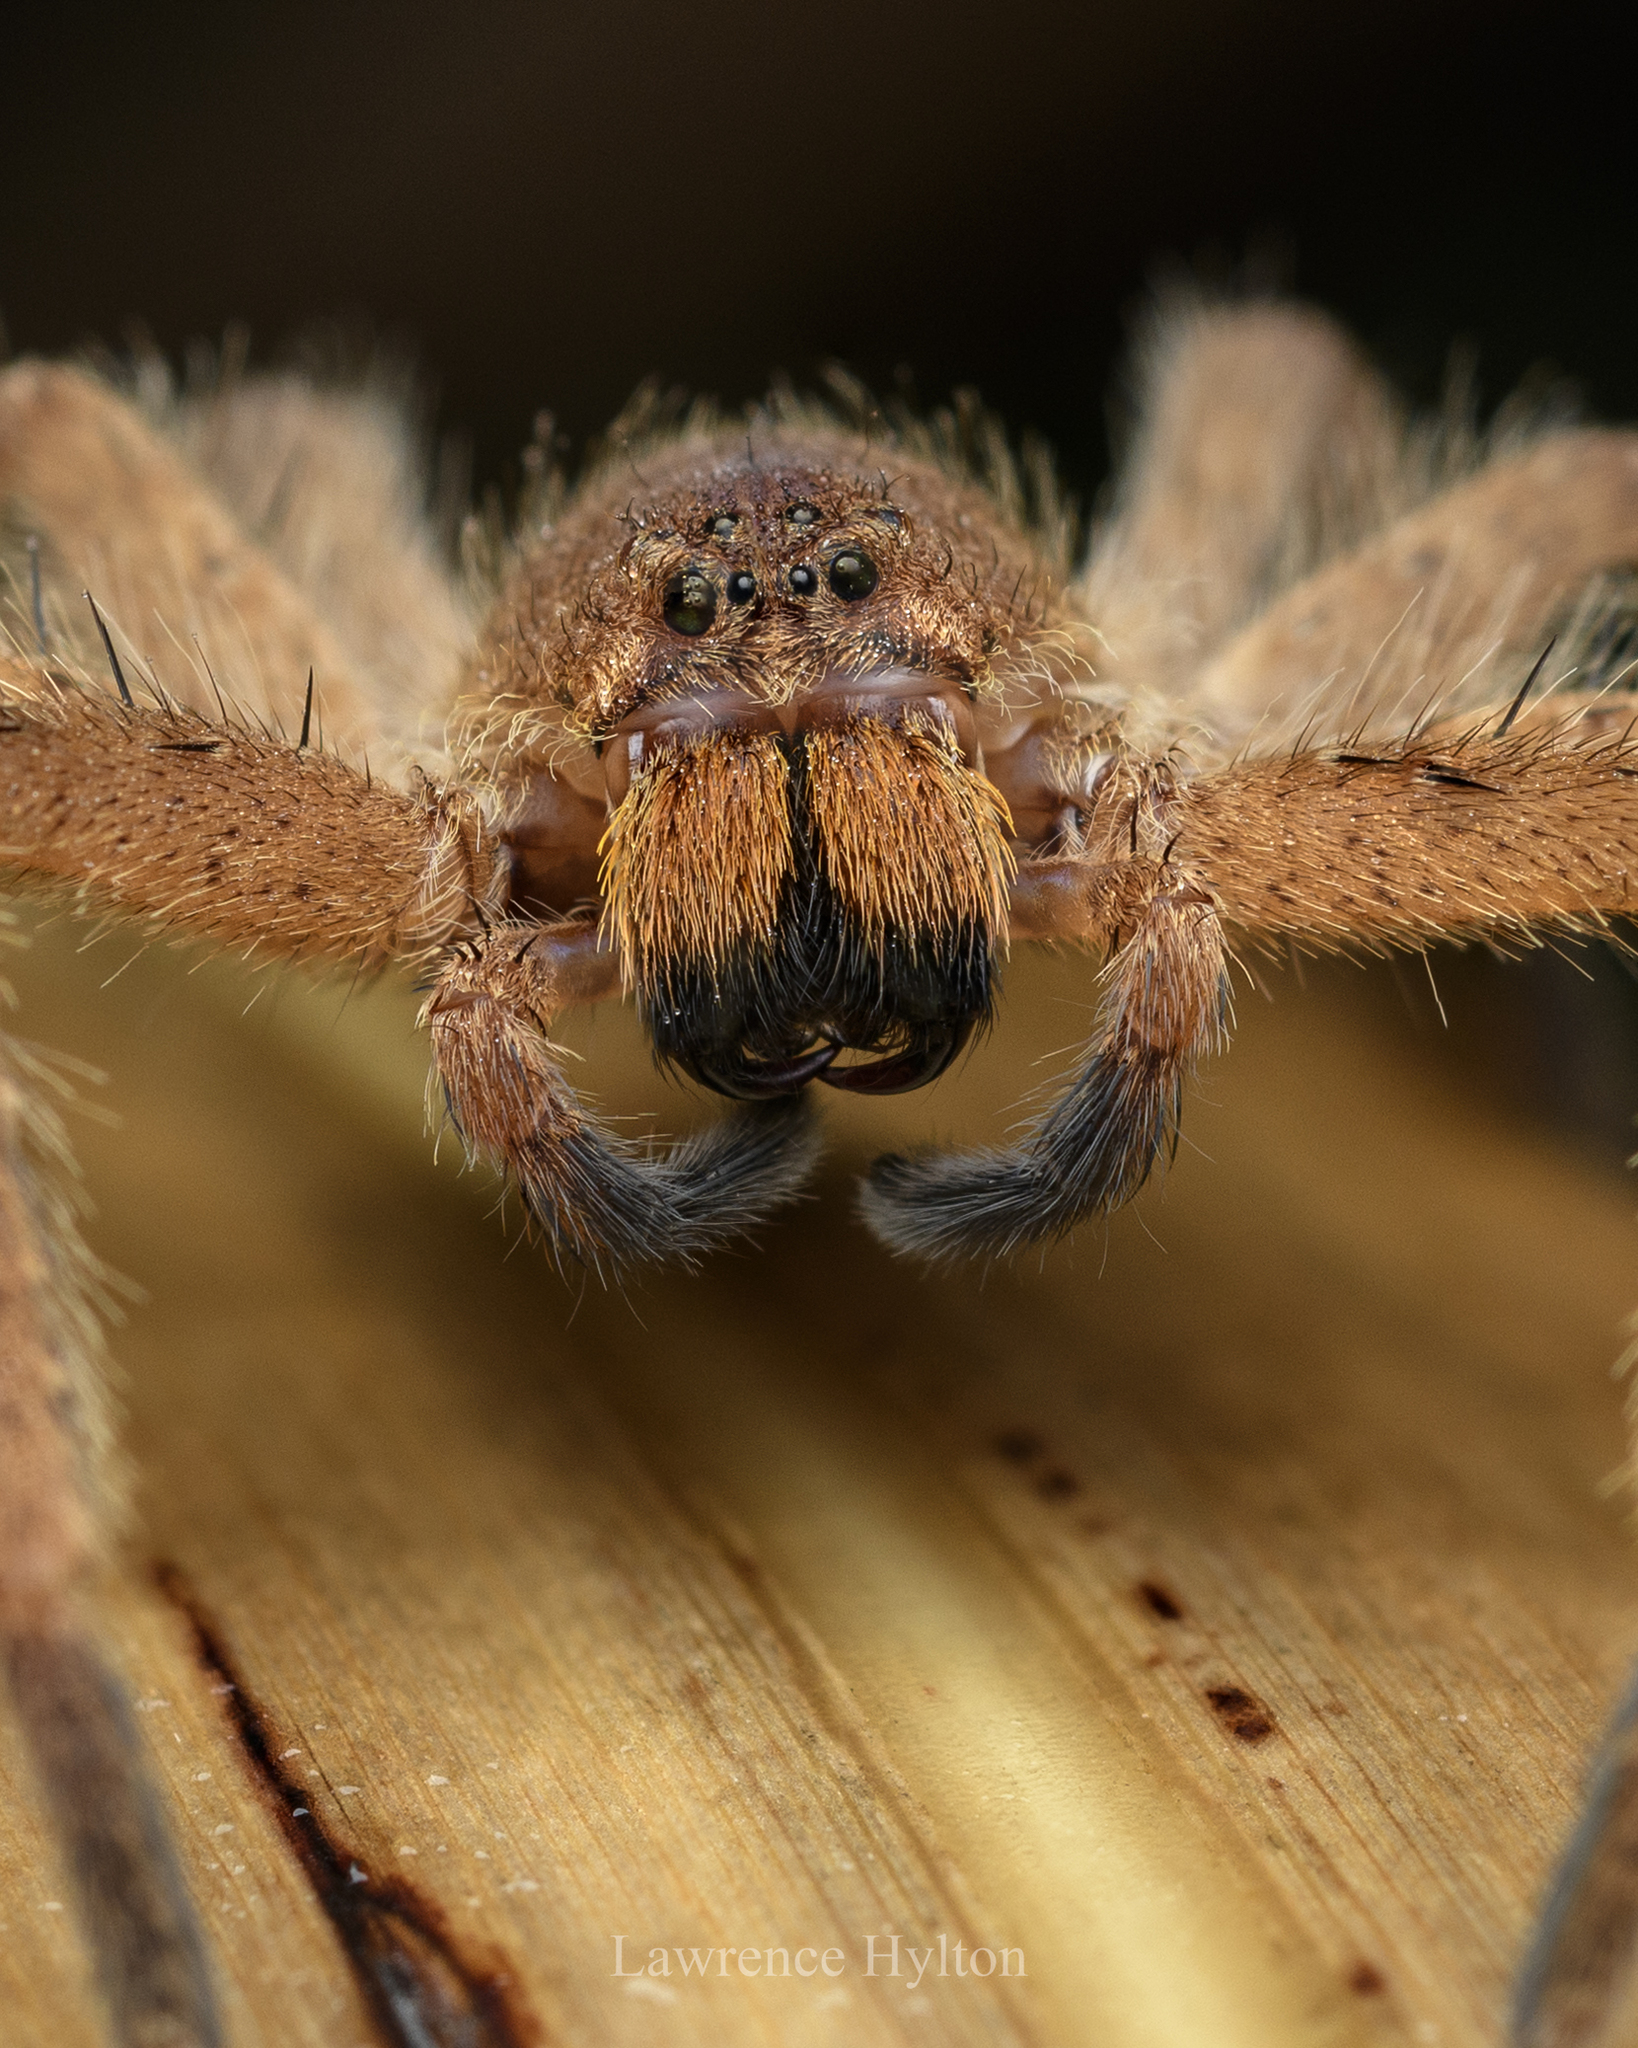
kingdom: Animalia
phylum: Arthropoda
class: Arachnida
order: Araneae
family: Sparassidae
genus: Heteropoda
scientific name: Heteropoda pingtungensis
